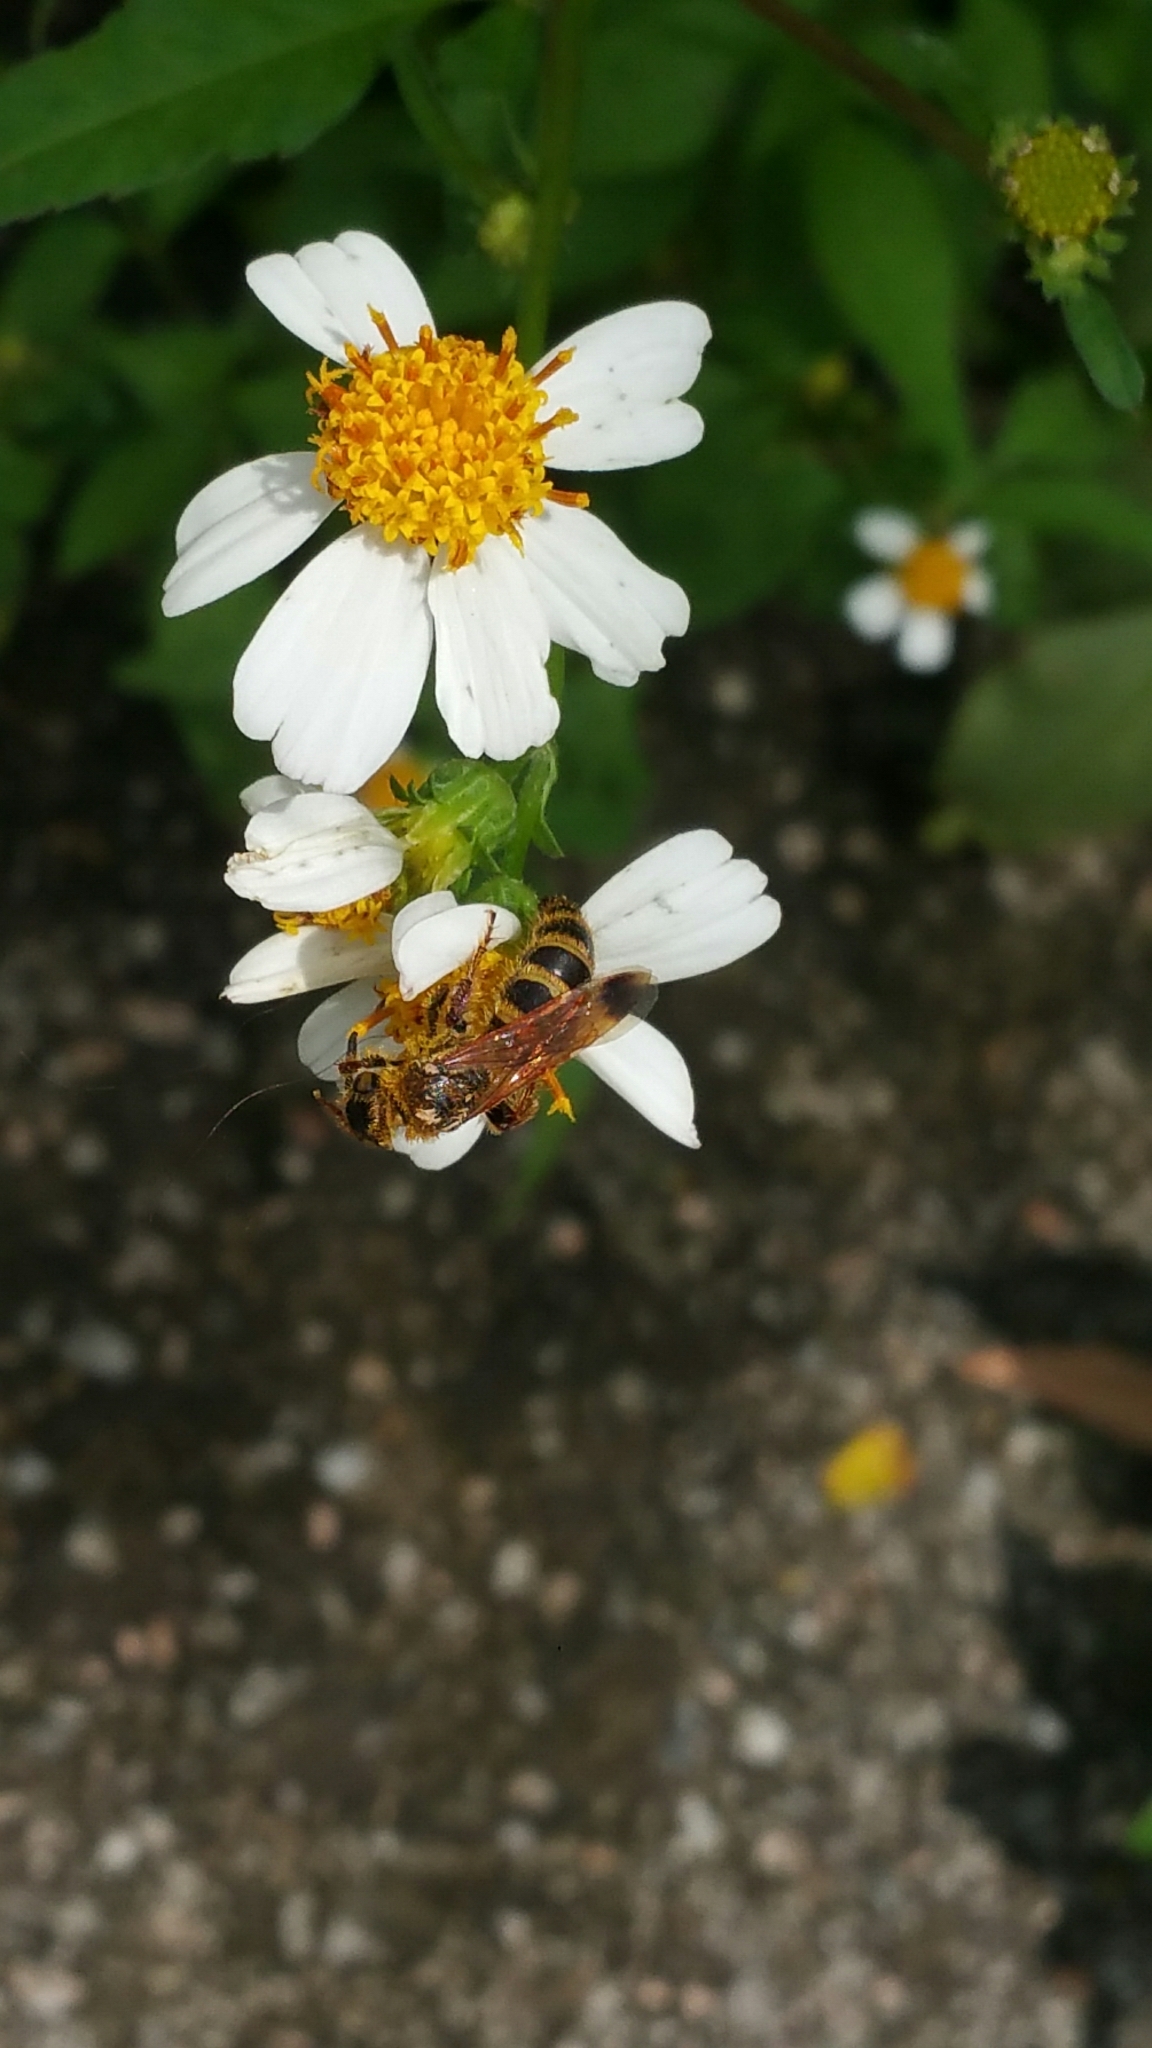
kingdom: Animalia
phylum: Arthropoda
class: Insecta
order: Hymenoptera
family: Scoliidae
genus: Campsomeris
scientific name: Campsomeris phalerata
